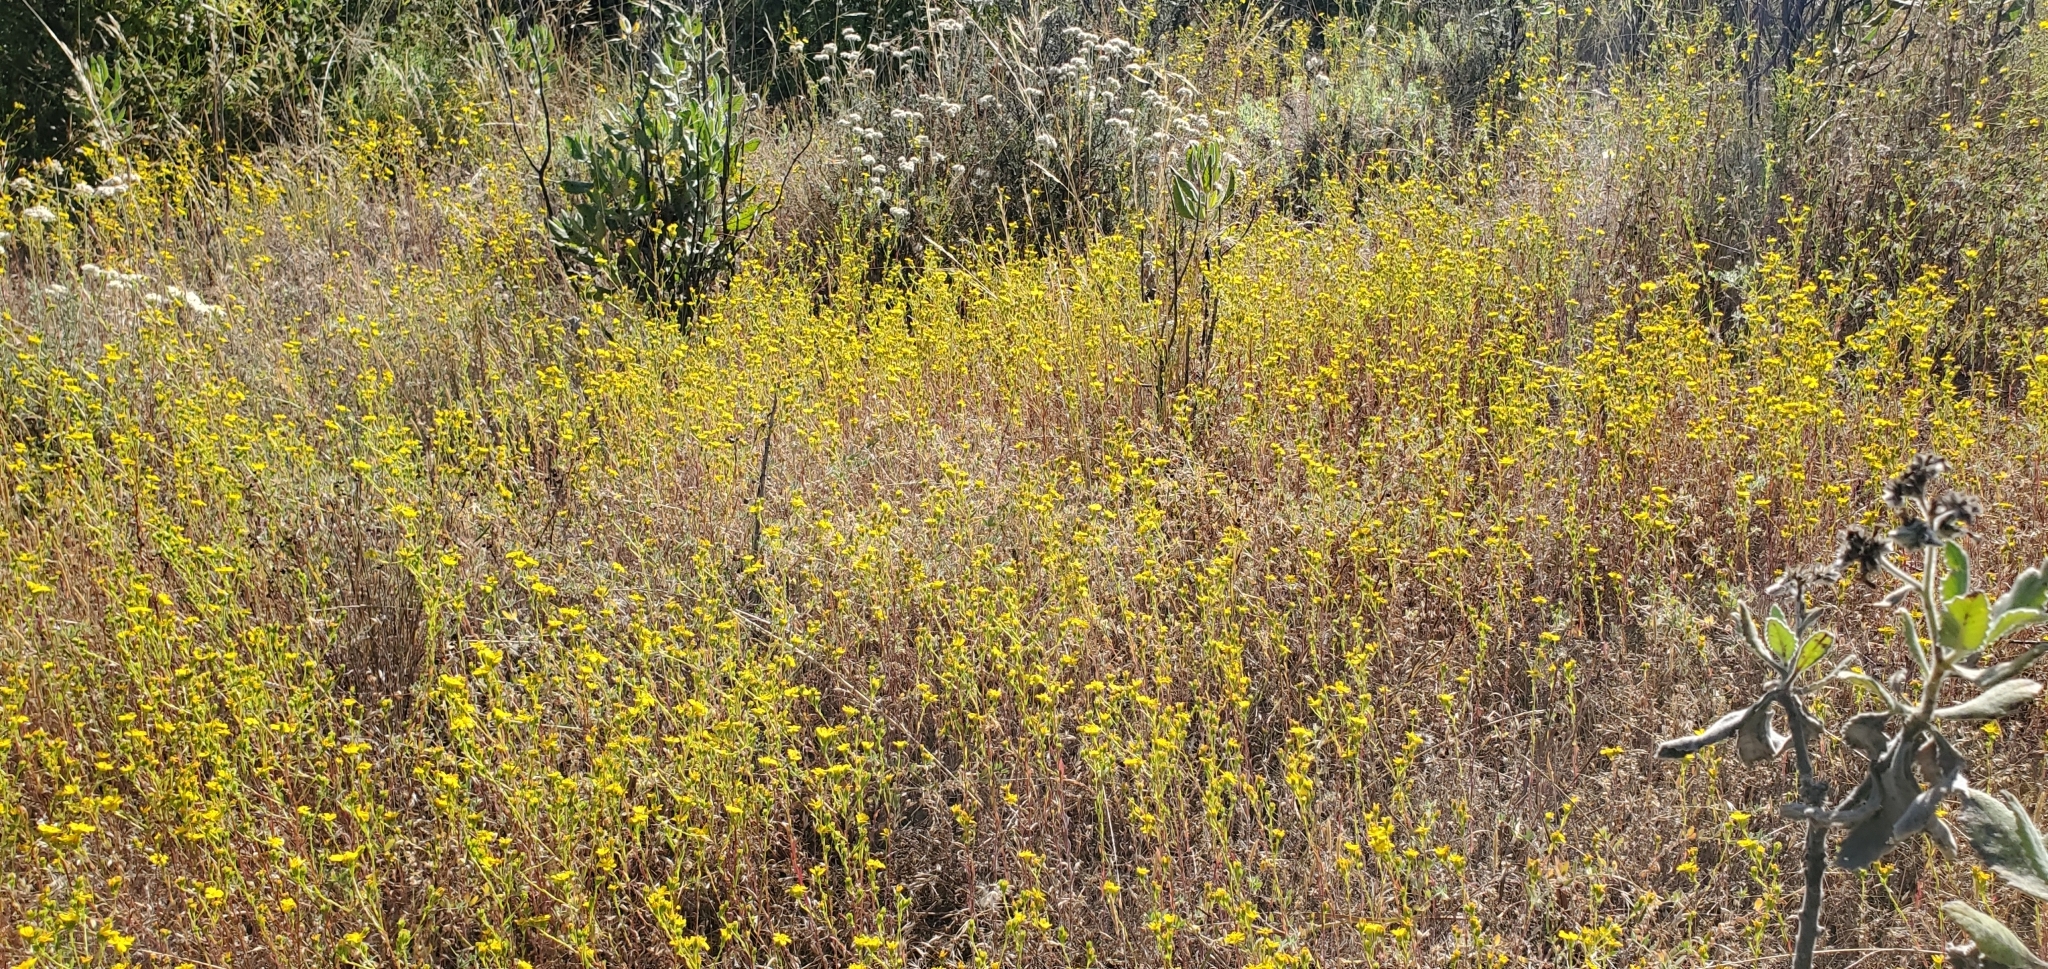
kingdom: Plantae
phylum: Tracheophyta
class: Magnoliopsida
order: Asterales
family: Asteraceae
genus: Deinandra
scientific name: Deinandra fasciculata
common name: Clustered tarweed
